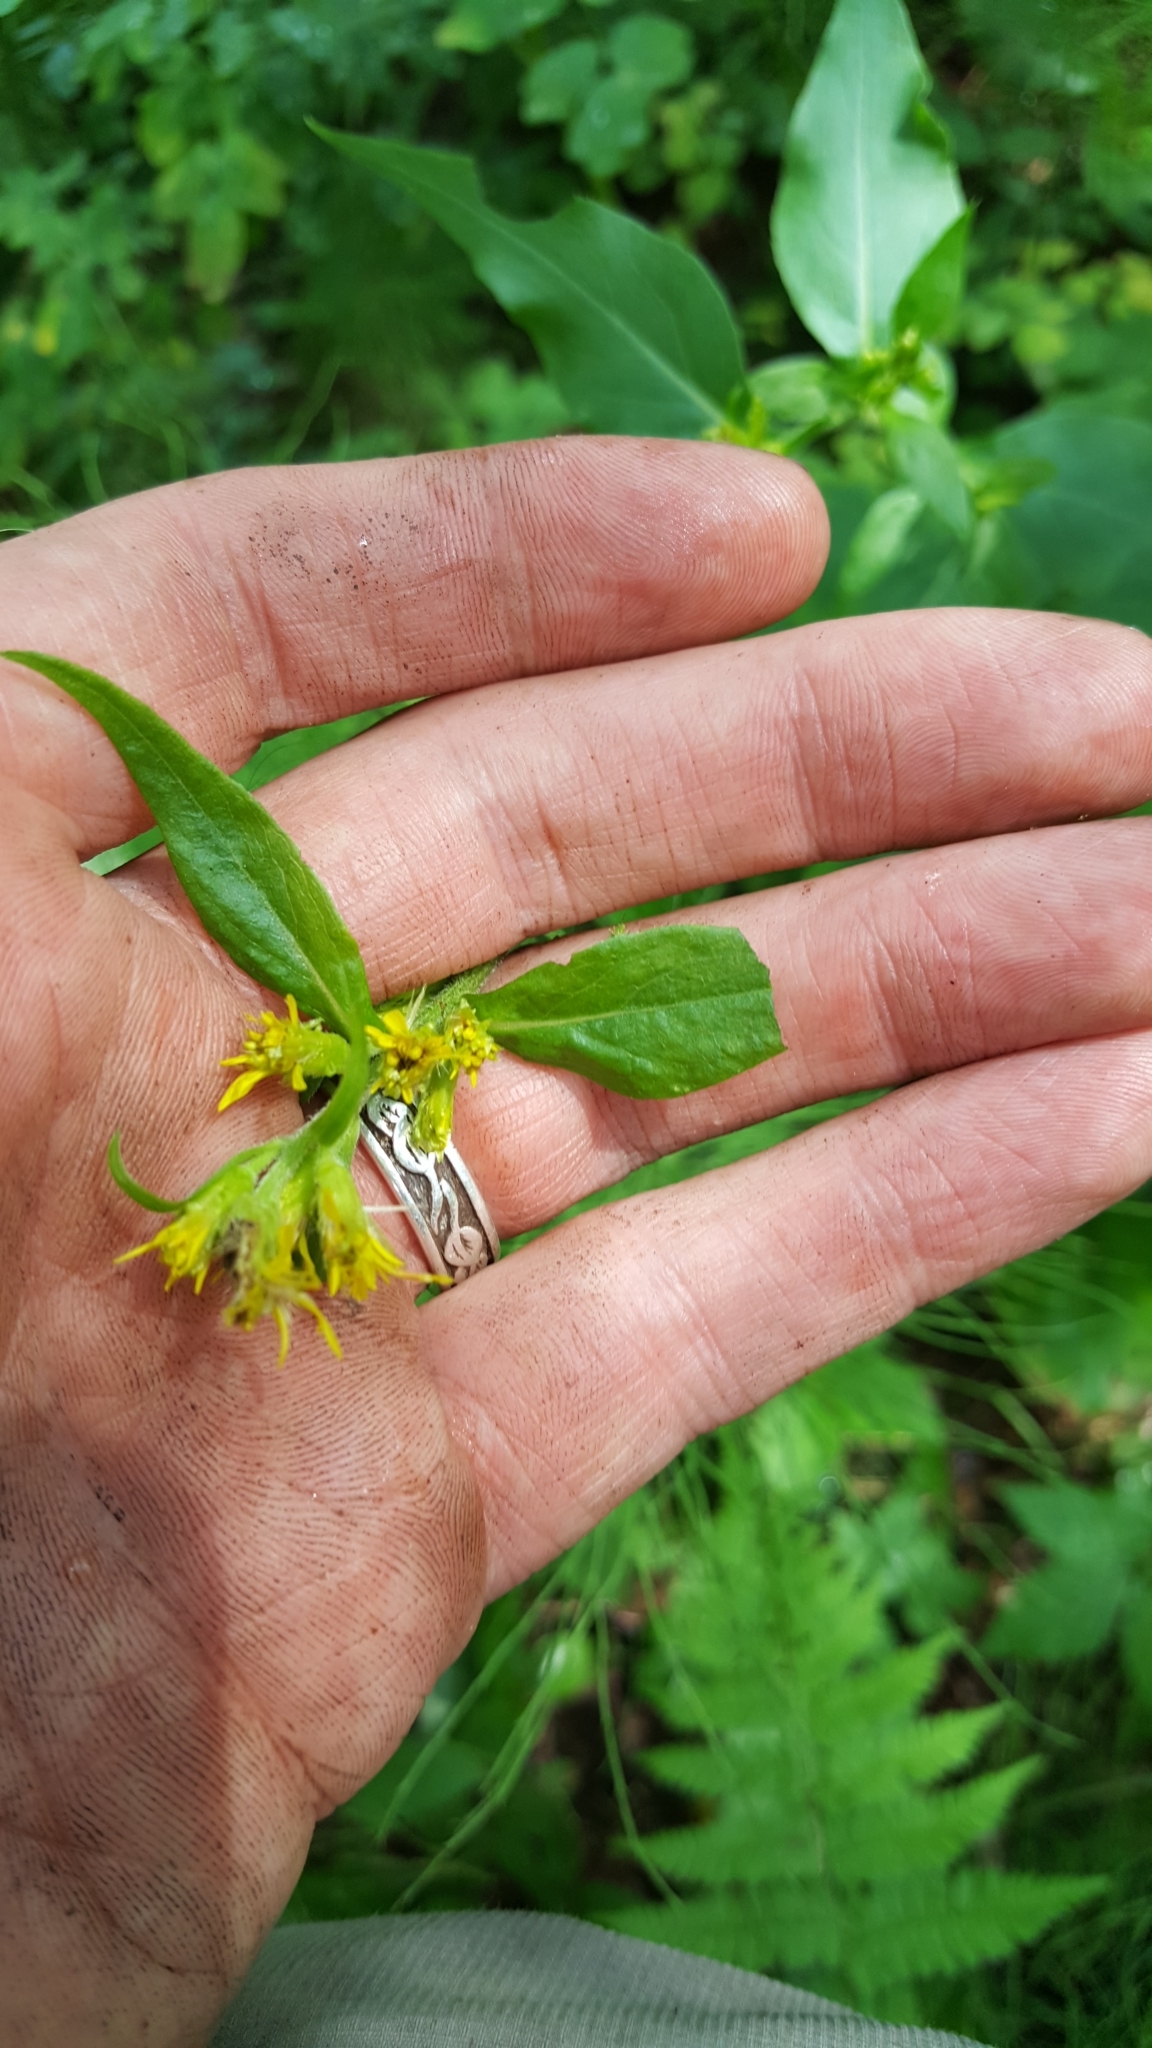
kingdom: Plantae
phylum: Tracheophyta
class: Magnoliopsida
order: Asterales
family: Asteraceae
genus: Solidago
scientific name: Solidago macrophylla
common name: Large-leaved goldenrod
